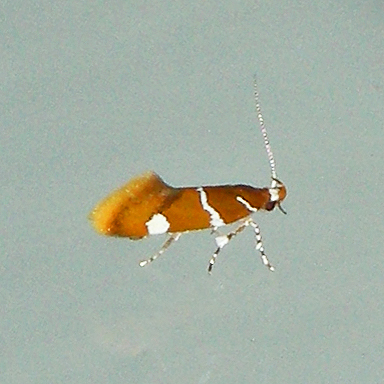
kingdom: Animalia
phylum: Arthropoda
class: Insecta
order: Lepidoptera
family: Oecophoridae
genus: Promalactis
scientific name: Promalactis suzukiella
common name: Moth
